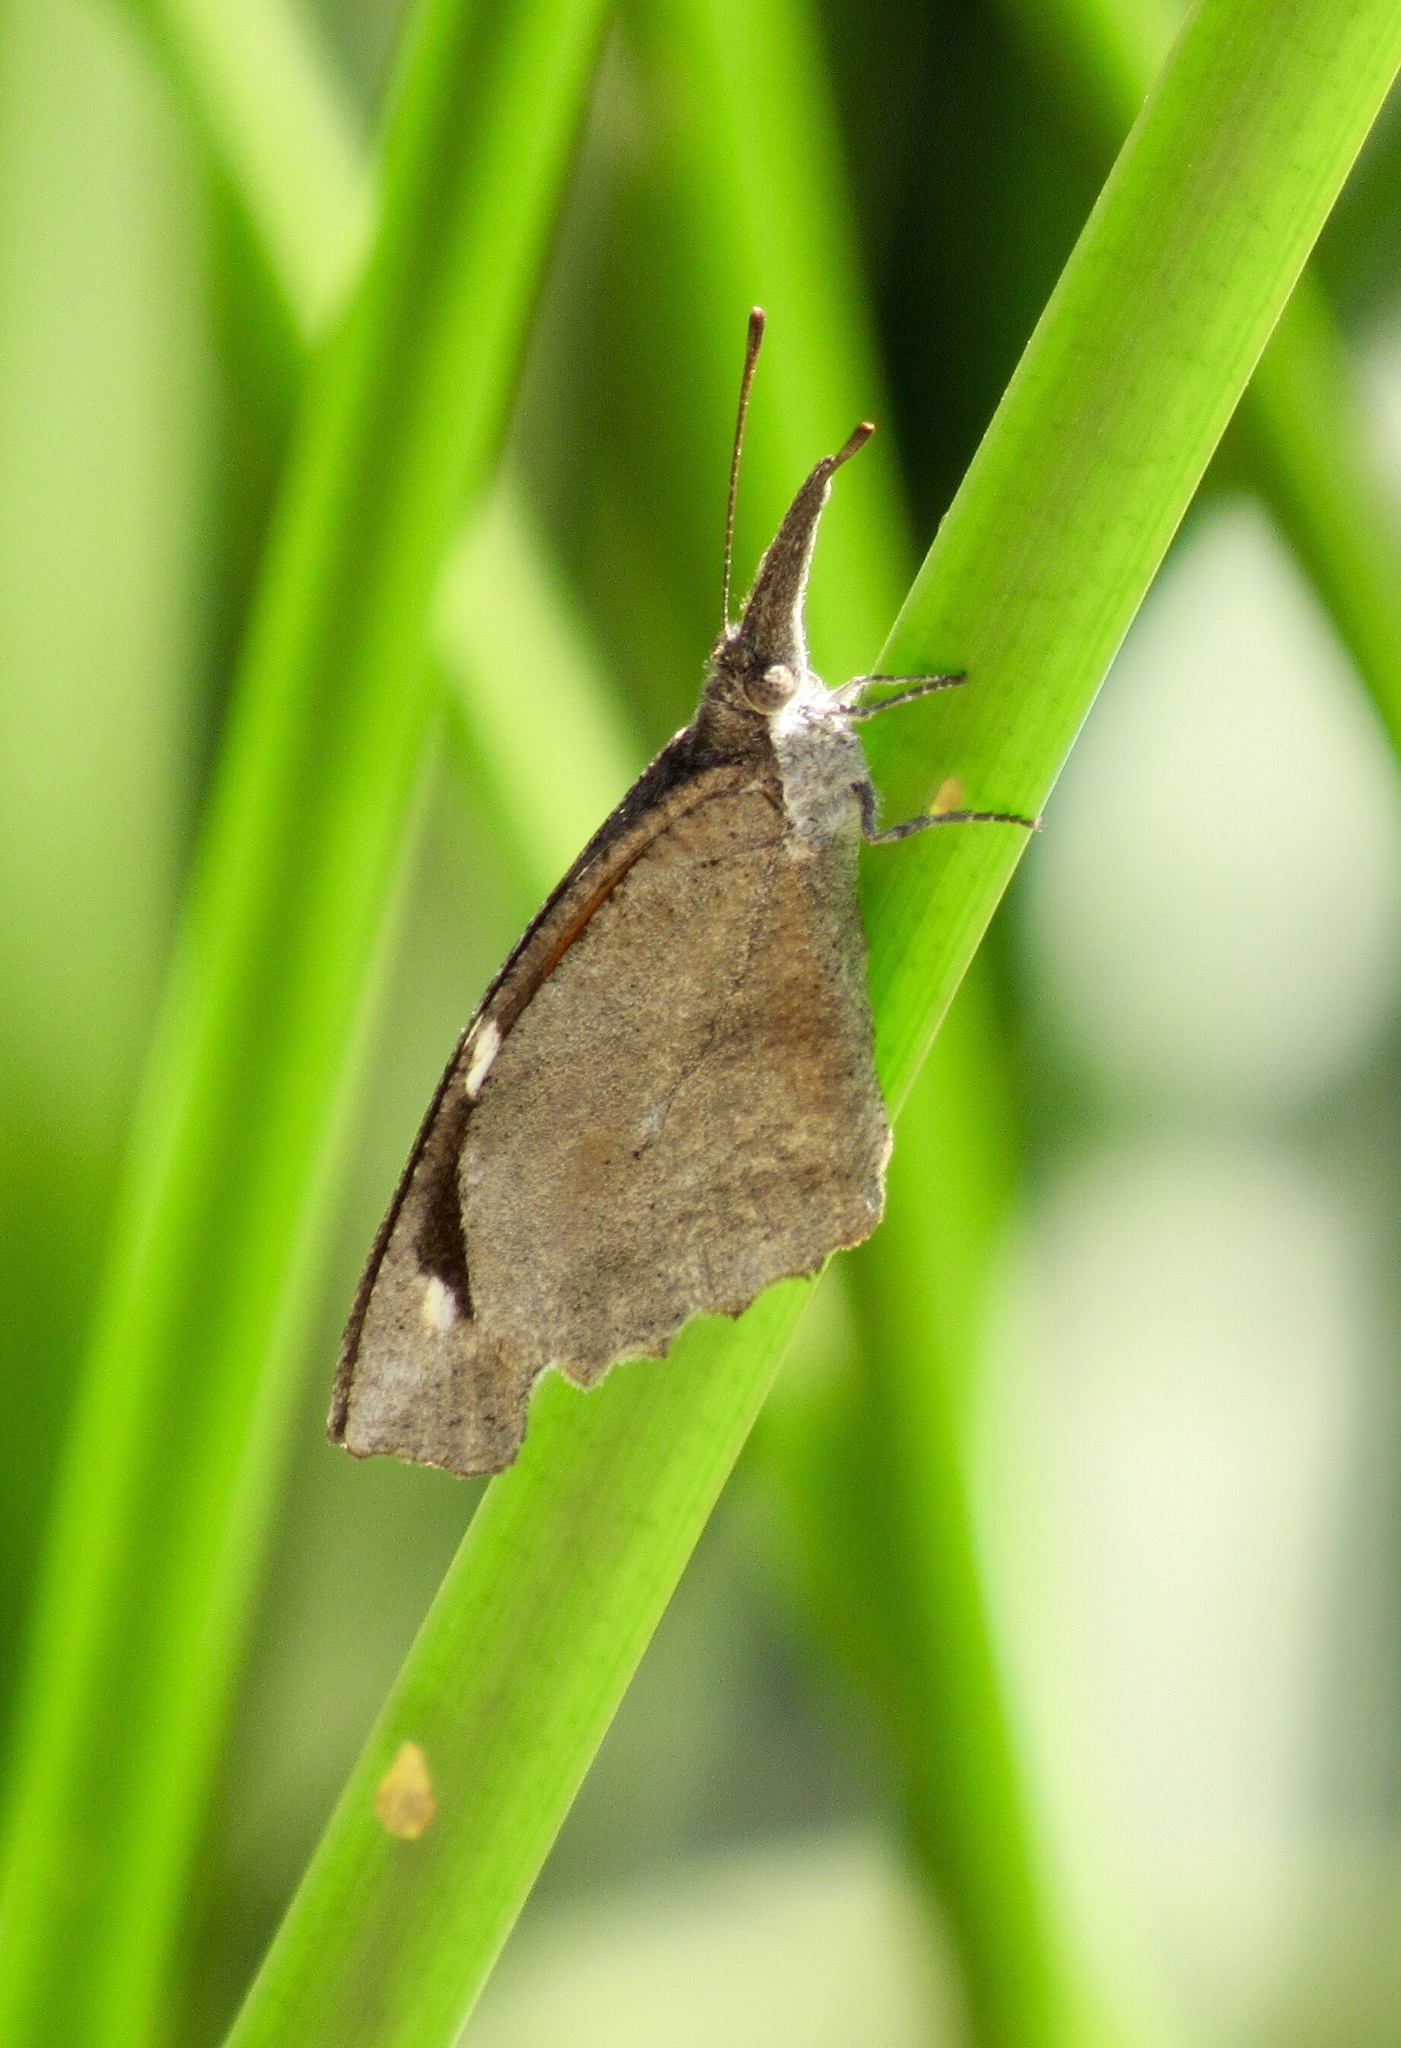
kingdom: Animalia
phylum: Arthropoda
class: Insecta
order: Lepidoptera
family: Nymphalidae
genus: Libytheana
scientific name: Libytheana carinenta
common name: American snout
